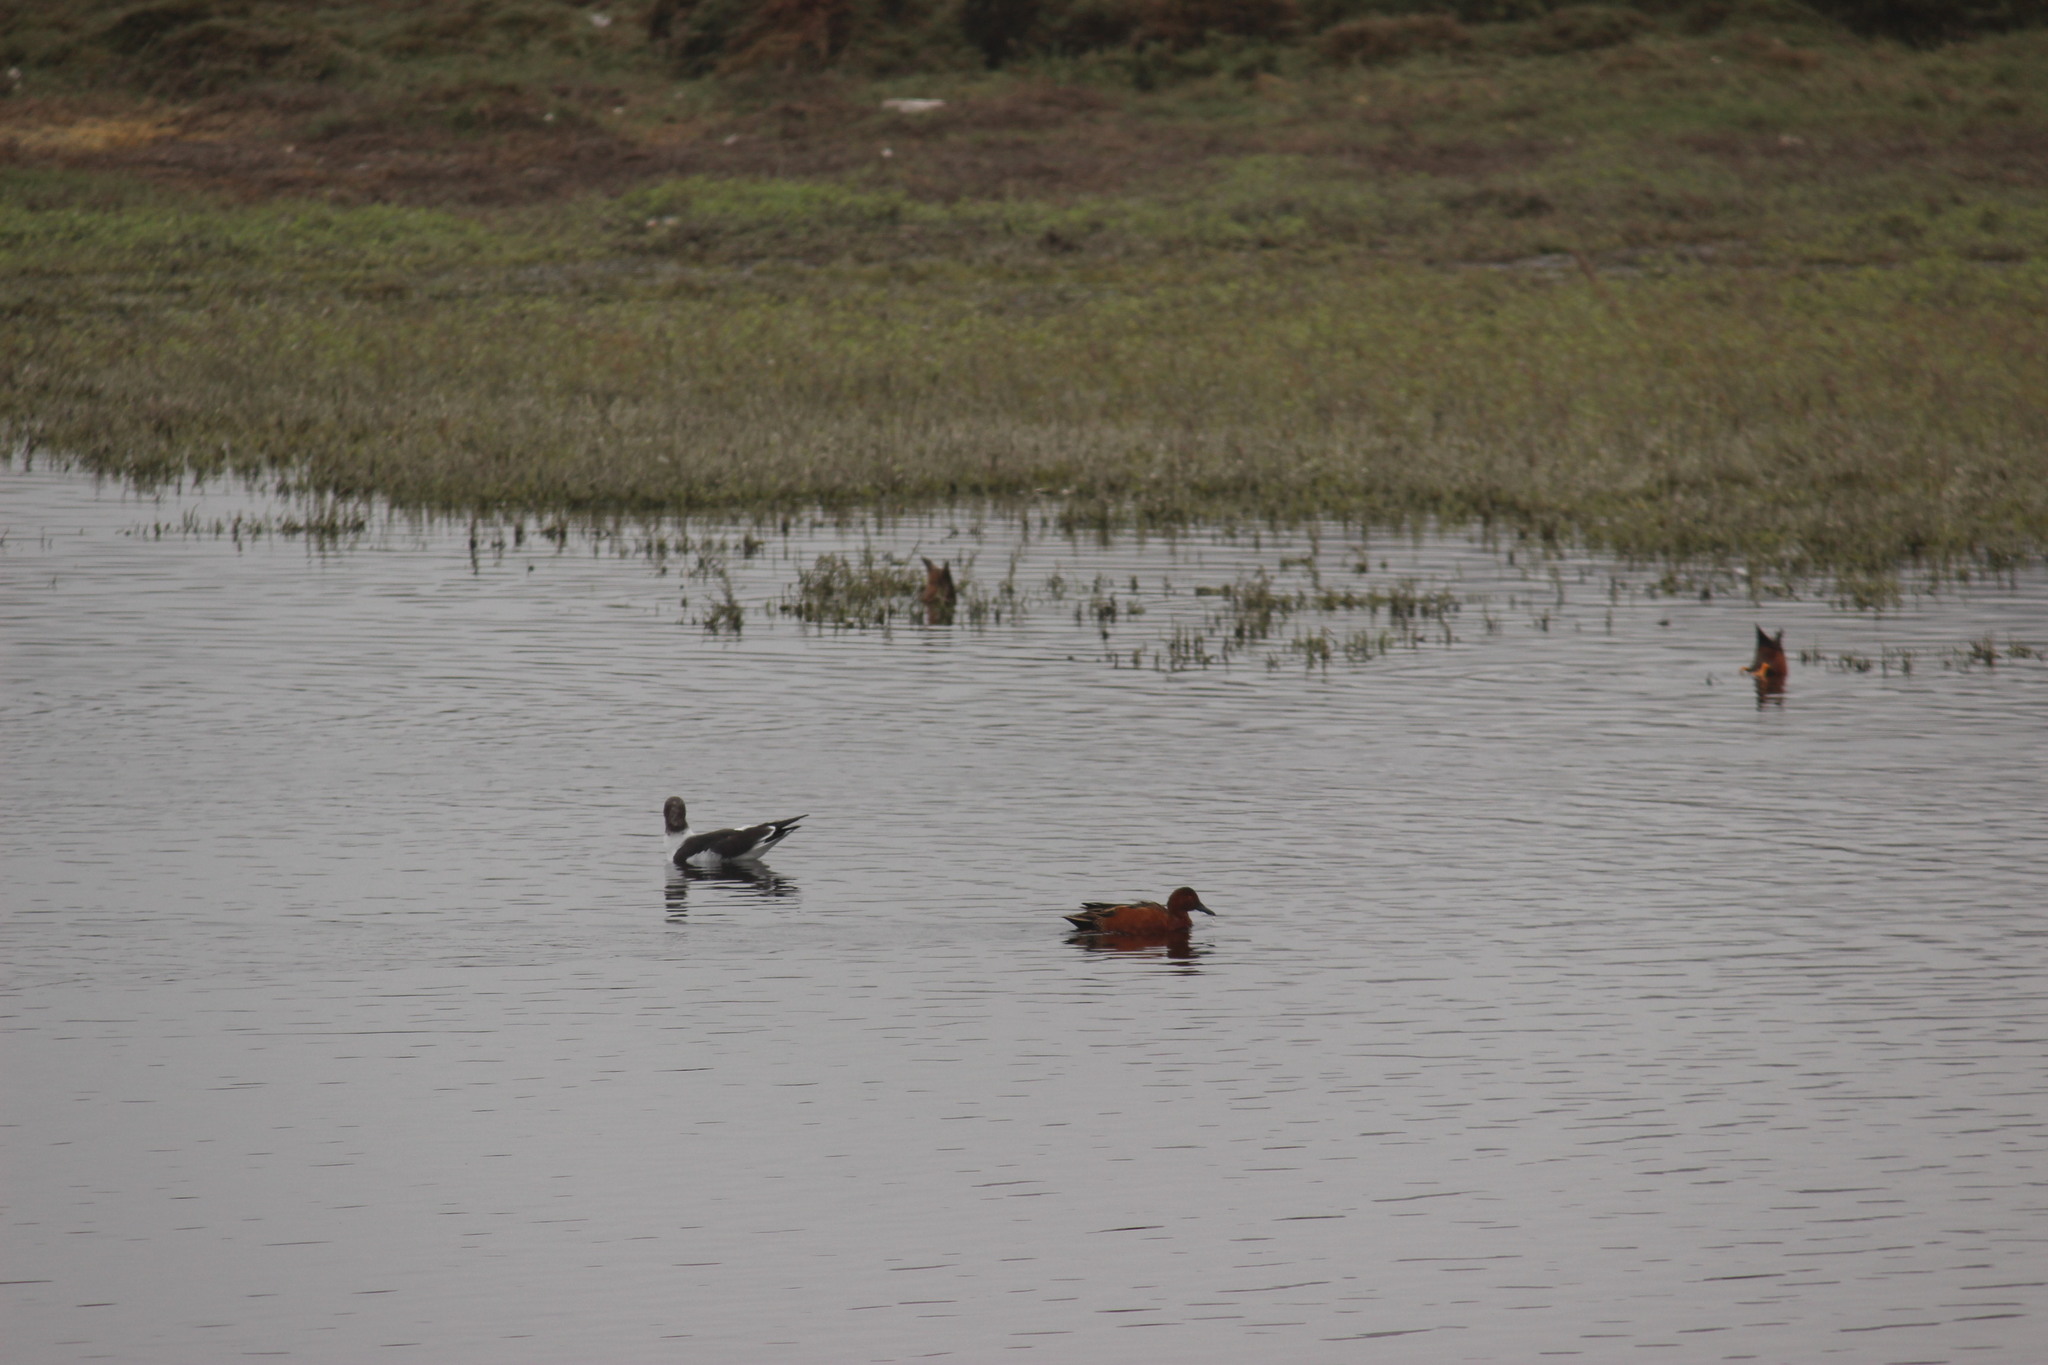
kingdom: Animalia
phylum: Chordata
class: Aves
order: Anseriformes
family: Anatidae
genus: Spatula
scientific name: Spatula cyanoptera
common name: Cinnamon teal
